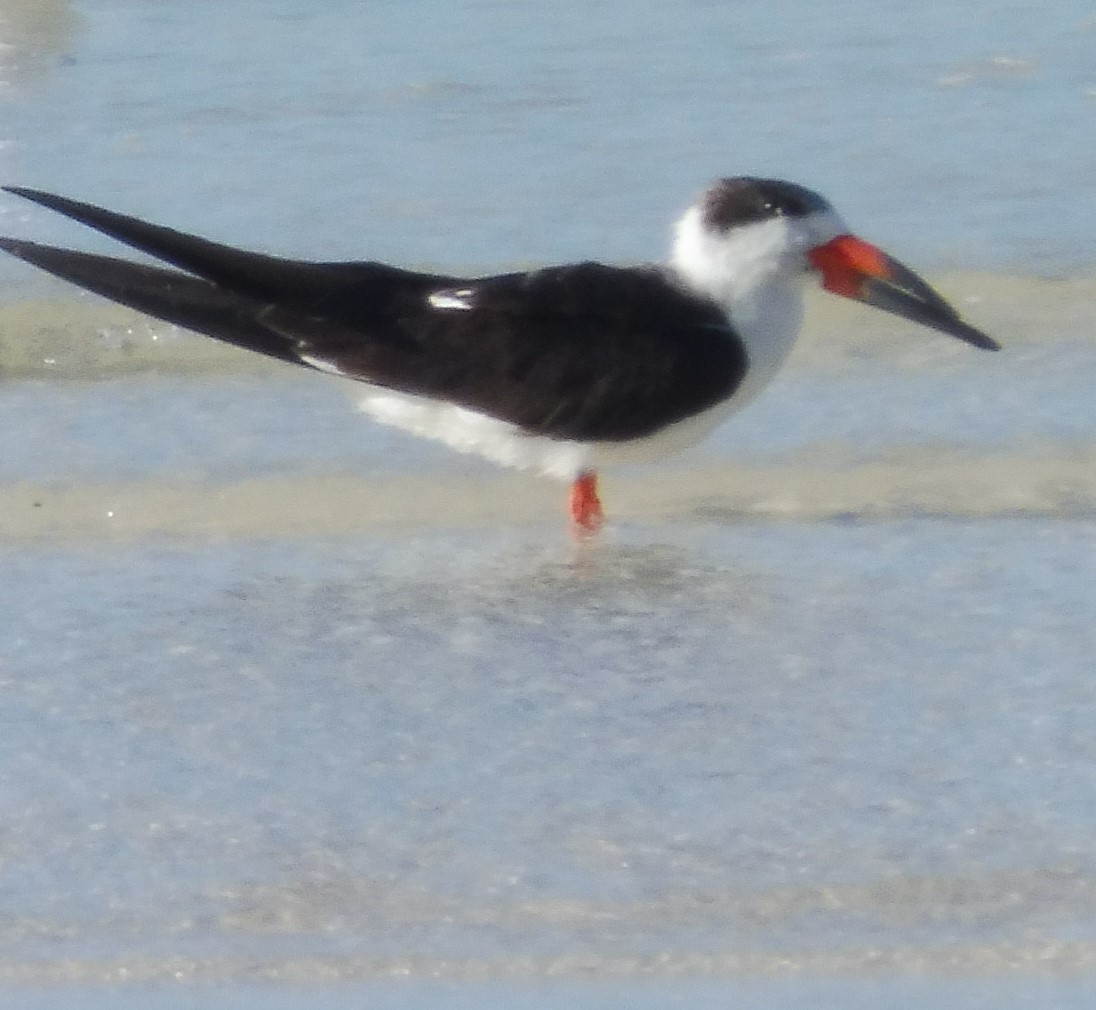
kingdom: Animalia
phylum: Chordata
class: Aves
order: Charadriiformes
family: Laridae
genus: Rynchops
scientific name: Rynchops niger
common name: Black skimmer
